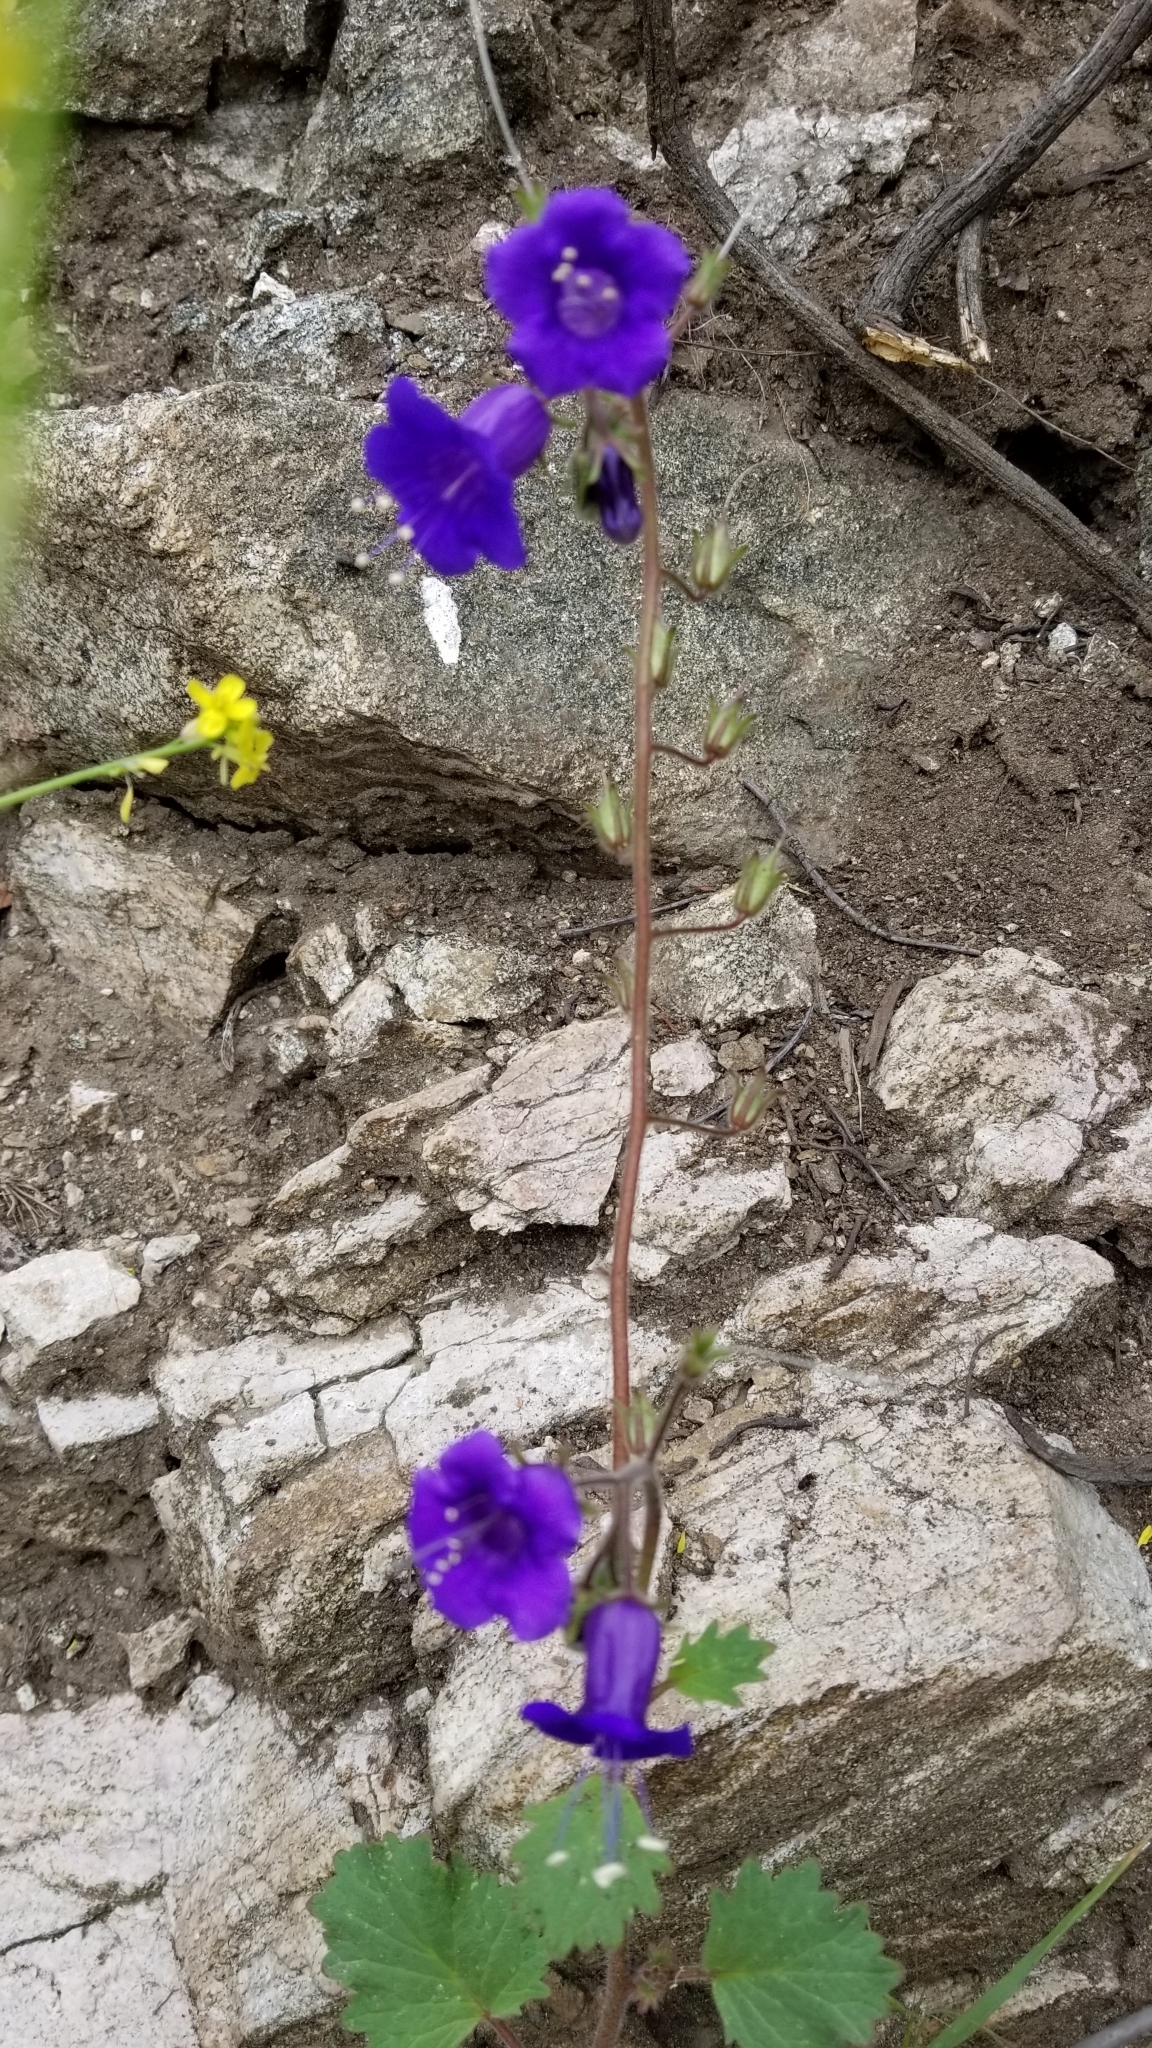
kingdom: Plantae
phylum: Tracheophyta
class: Magnoliopsida
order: Boraginales
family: Hydrophyllaceae
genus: Phacelia
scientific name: Phacelia minor
